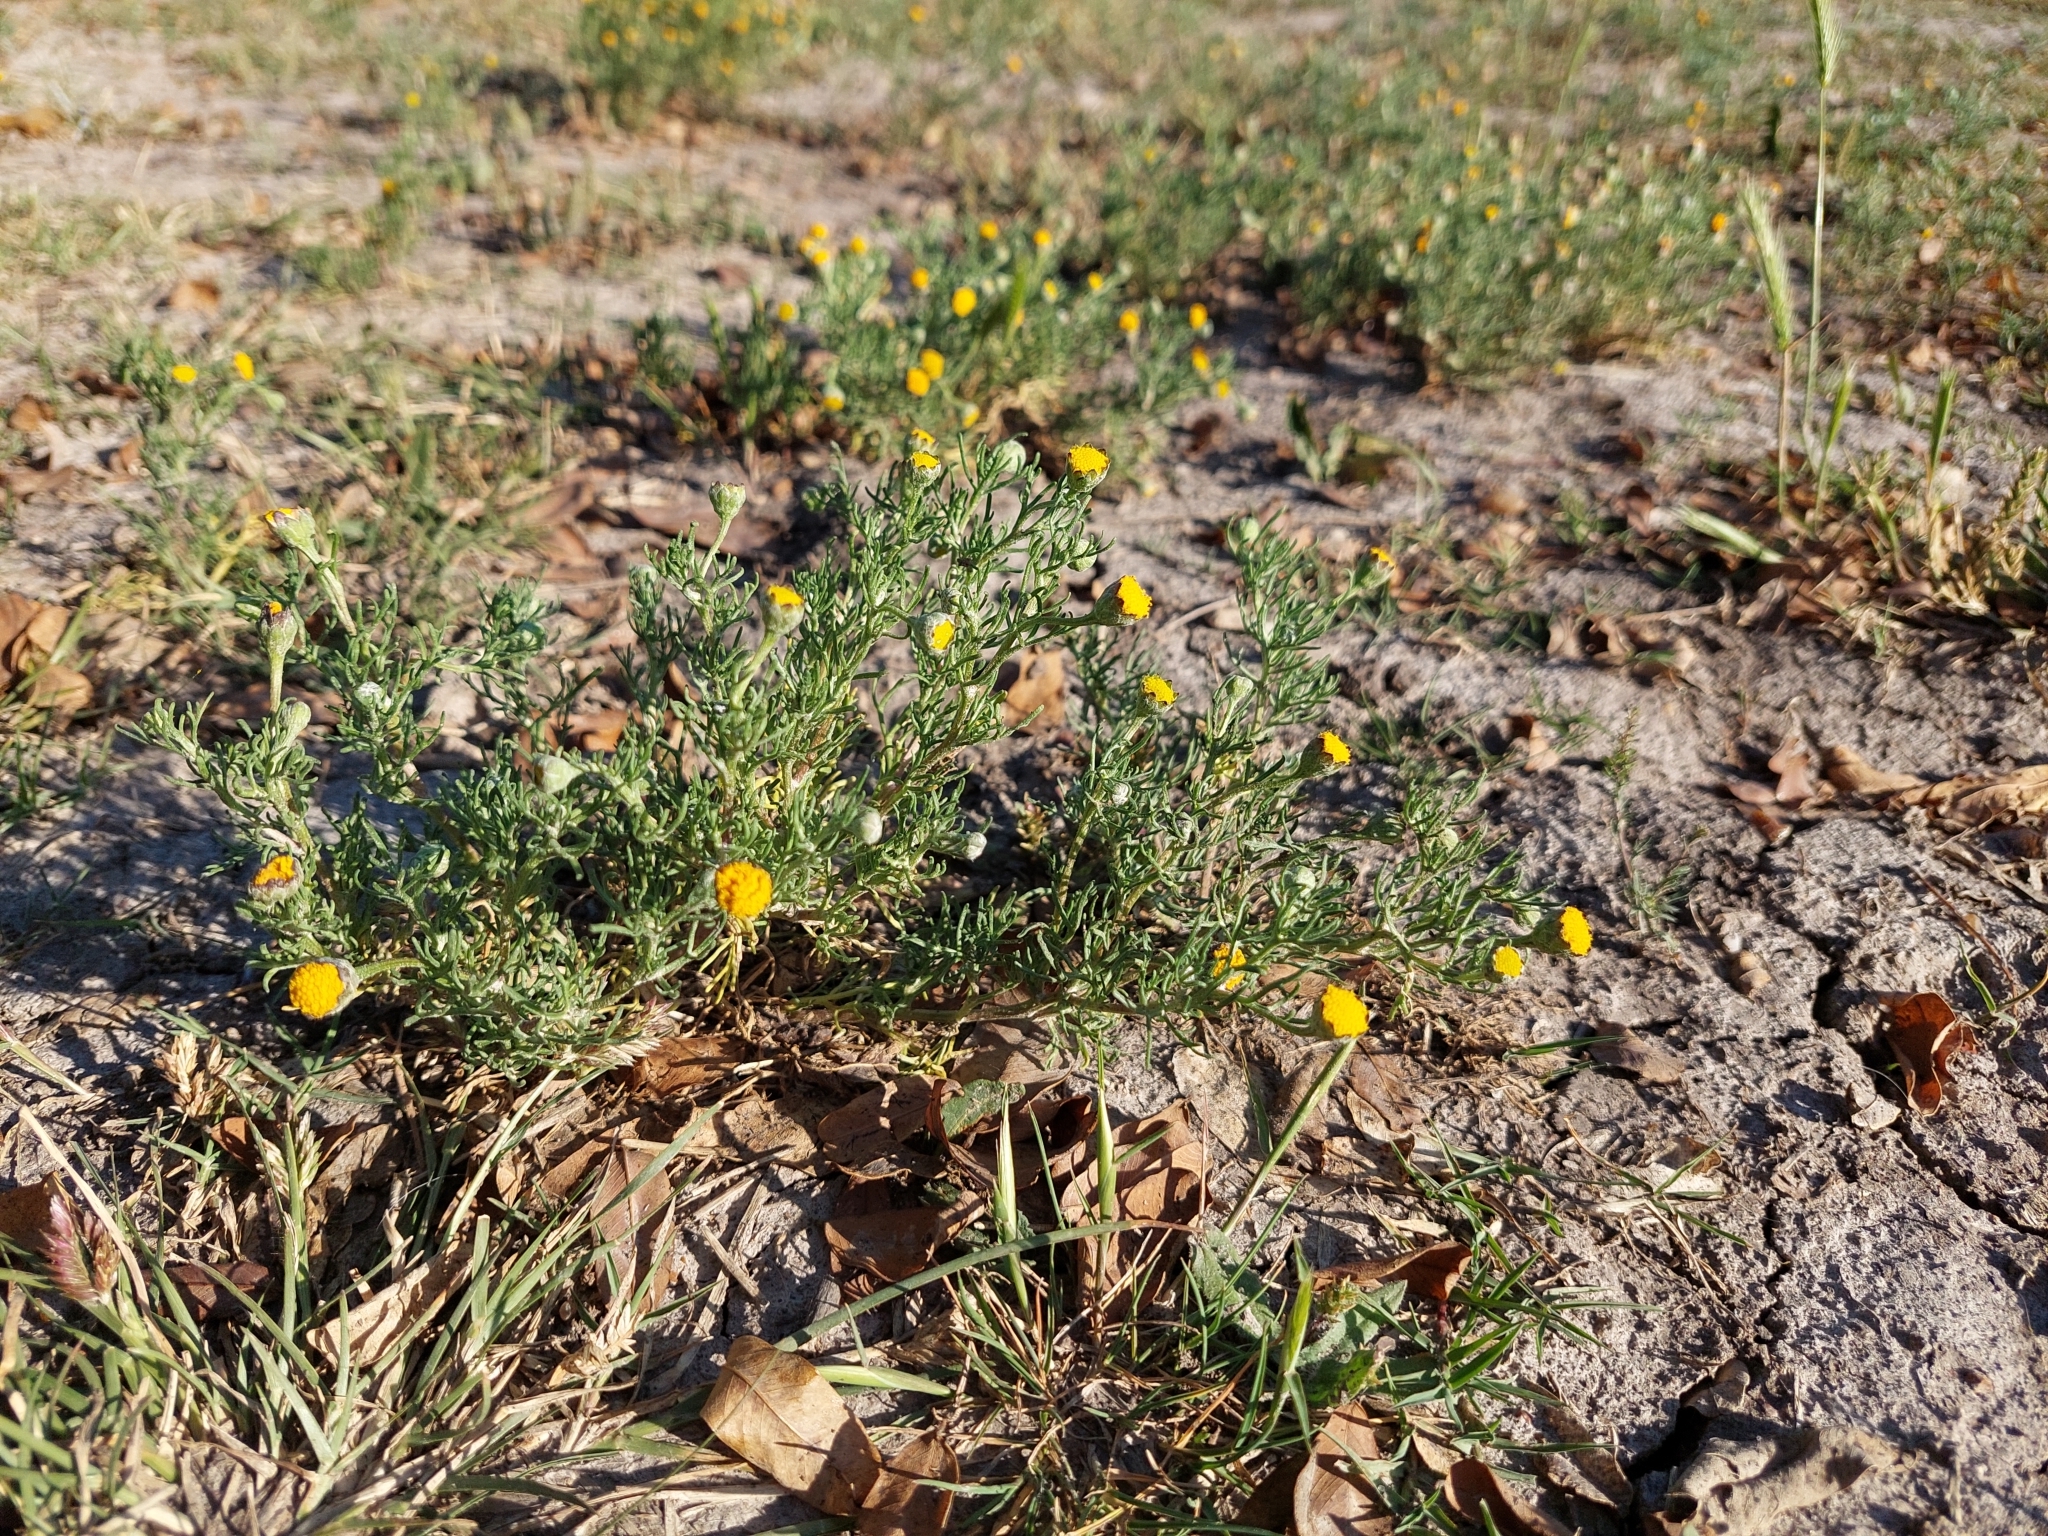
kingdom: Plantae
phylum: Tracheophyta
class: Magnoliopsida
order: Asterales
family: Asteraceae
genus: Hymenoxys
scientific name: Hymenoxys anthemoides
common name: South american rubberweed
